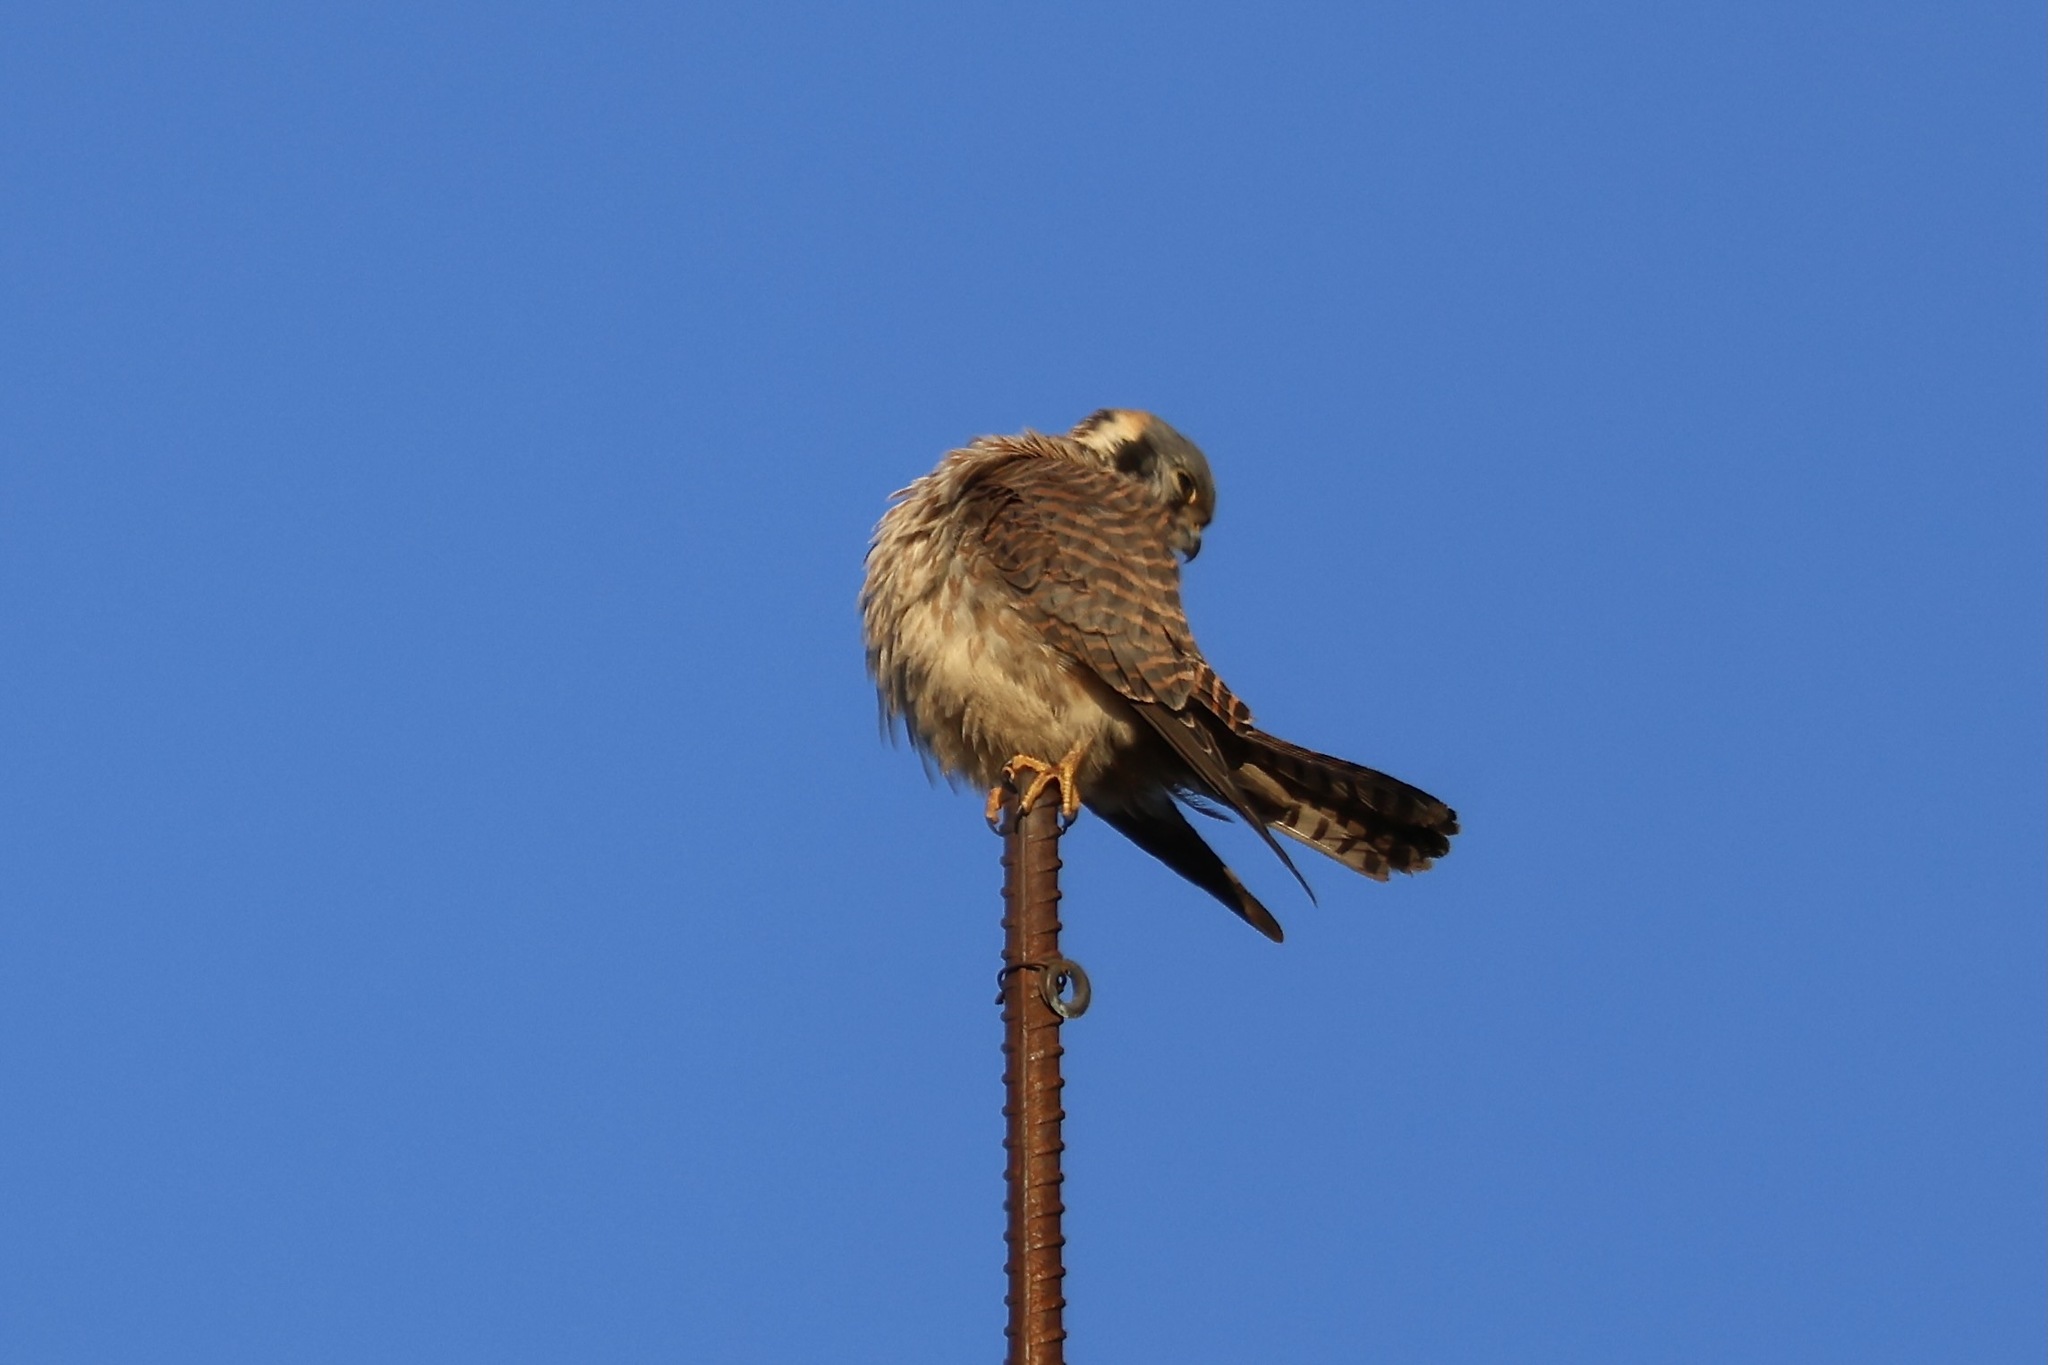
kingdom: Animalia
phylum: Chordata
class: Aves
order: Falconiformes
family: Falconidae
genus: Falco
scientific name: Falco sparverius
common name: American kestrel
